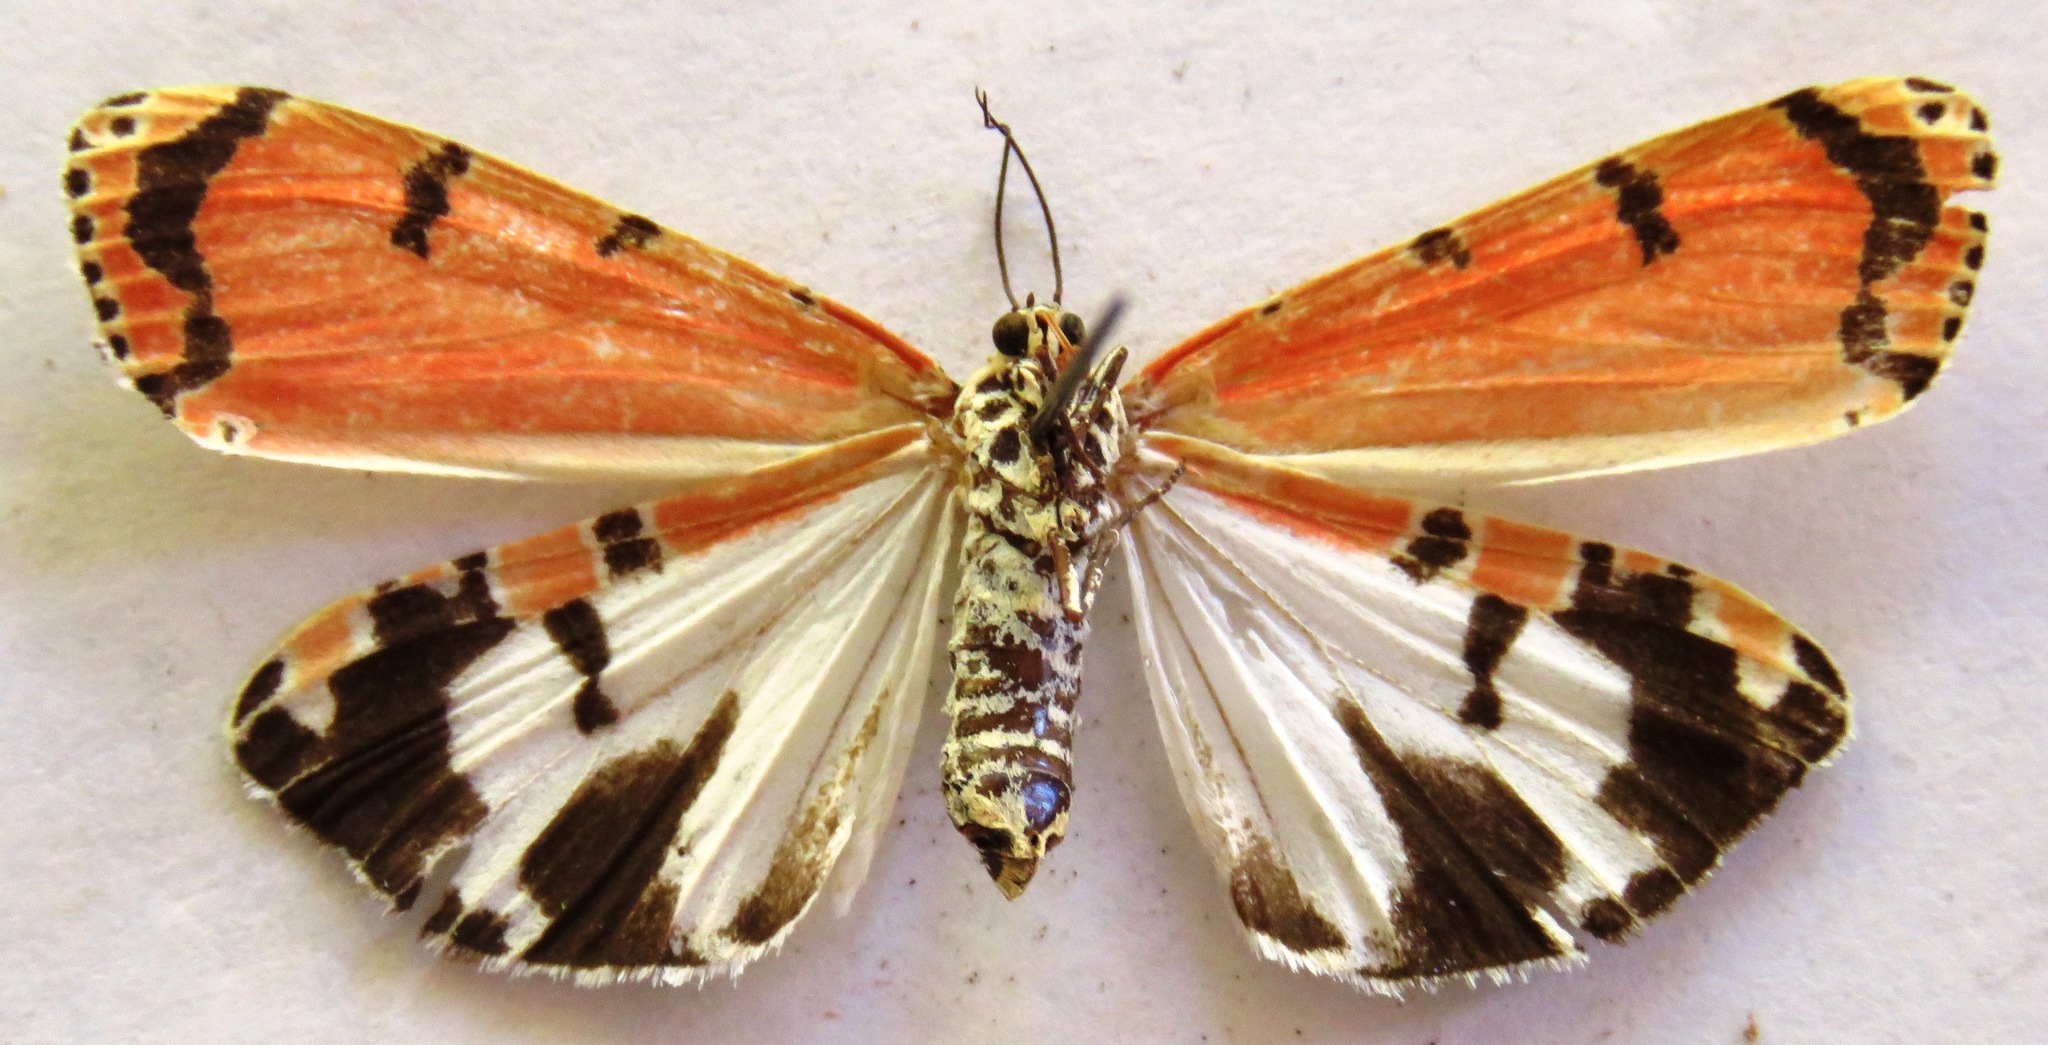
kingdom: Animalia
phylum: Arthropoda
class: Insecta
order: Lepidoptera
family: Erebidae
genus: Utetheisa
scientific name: Utetheisa ornatrix
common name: Beautiful utetheisa
